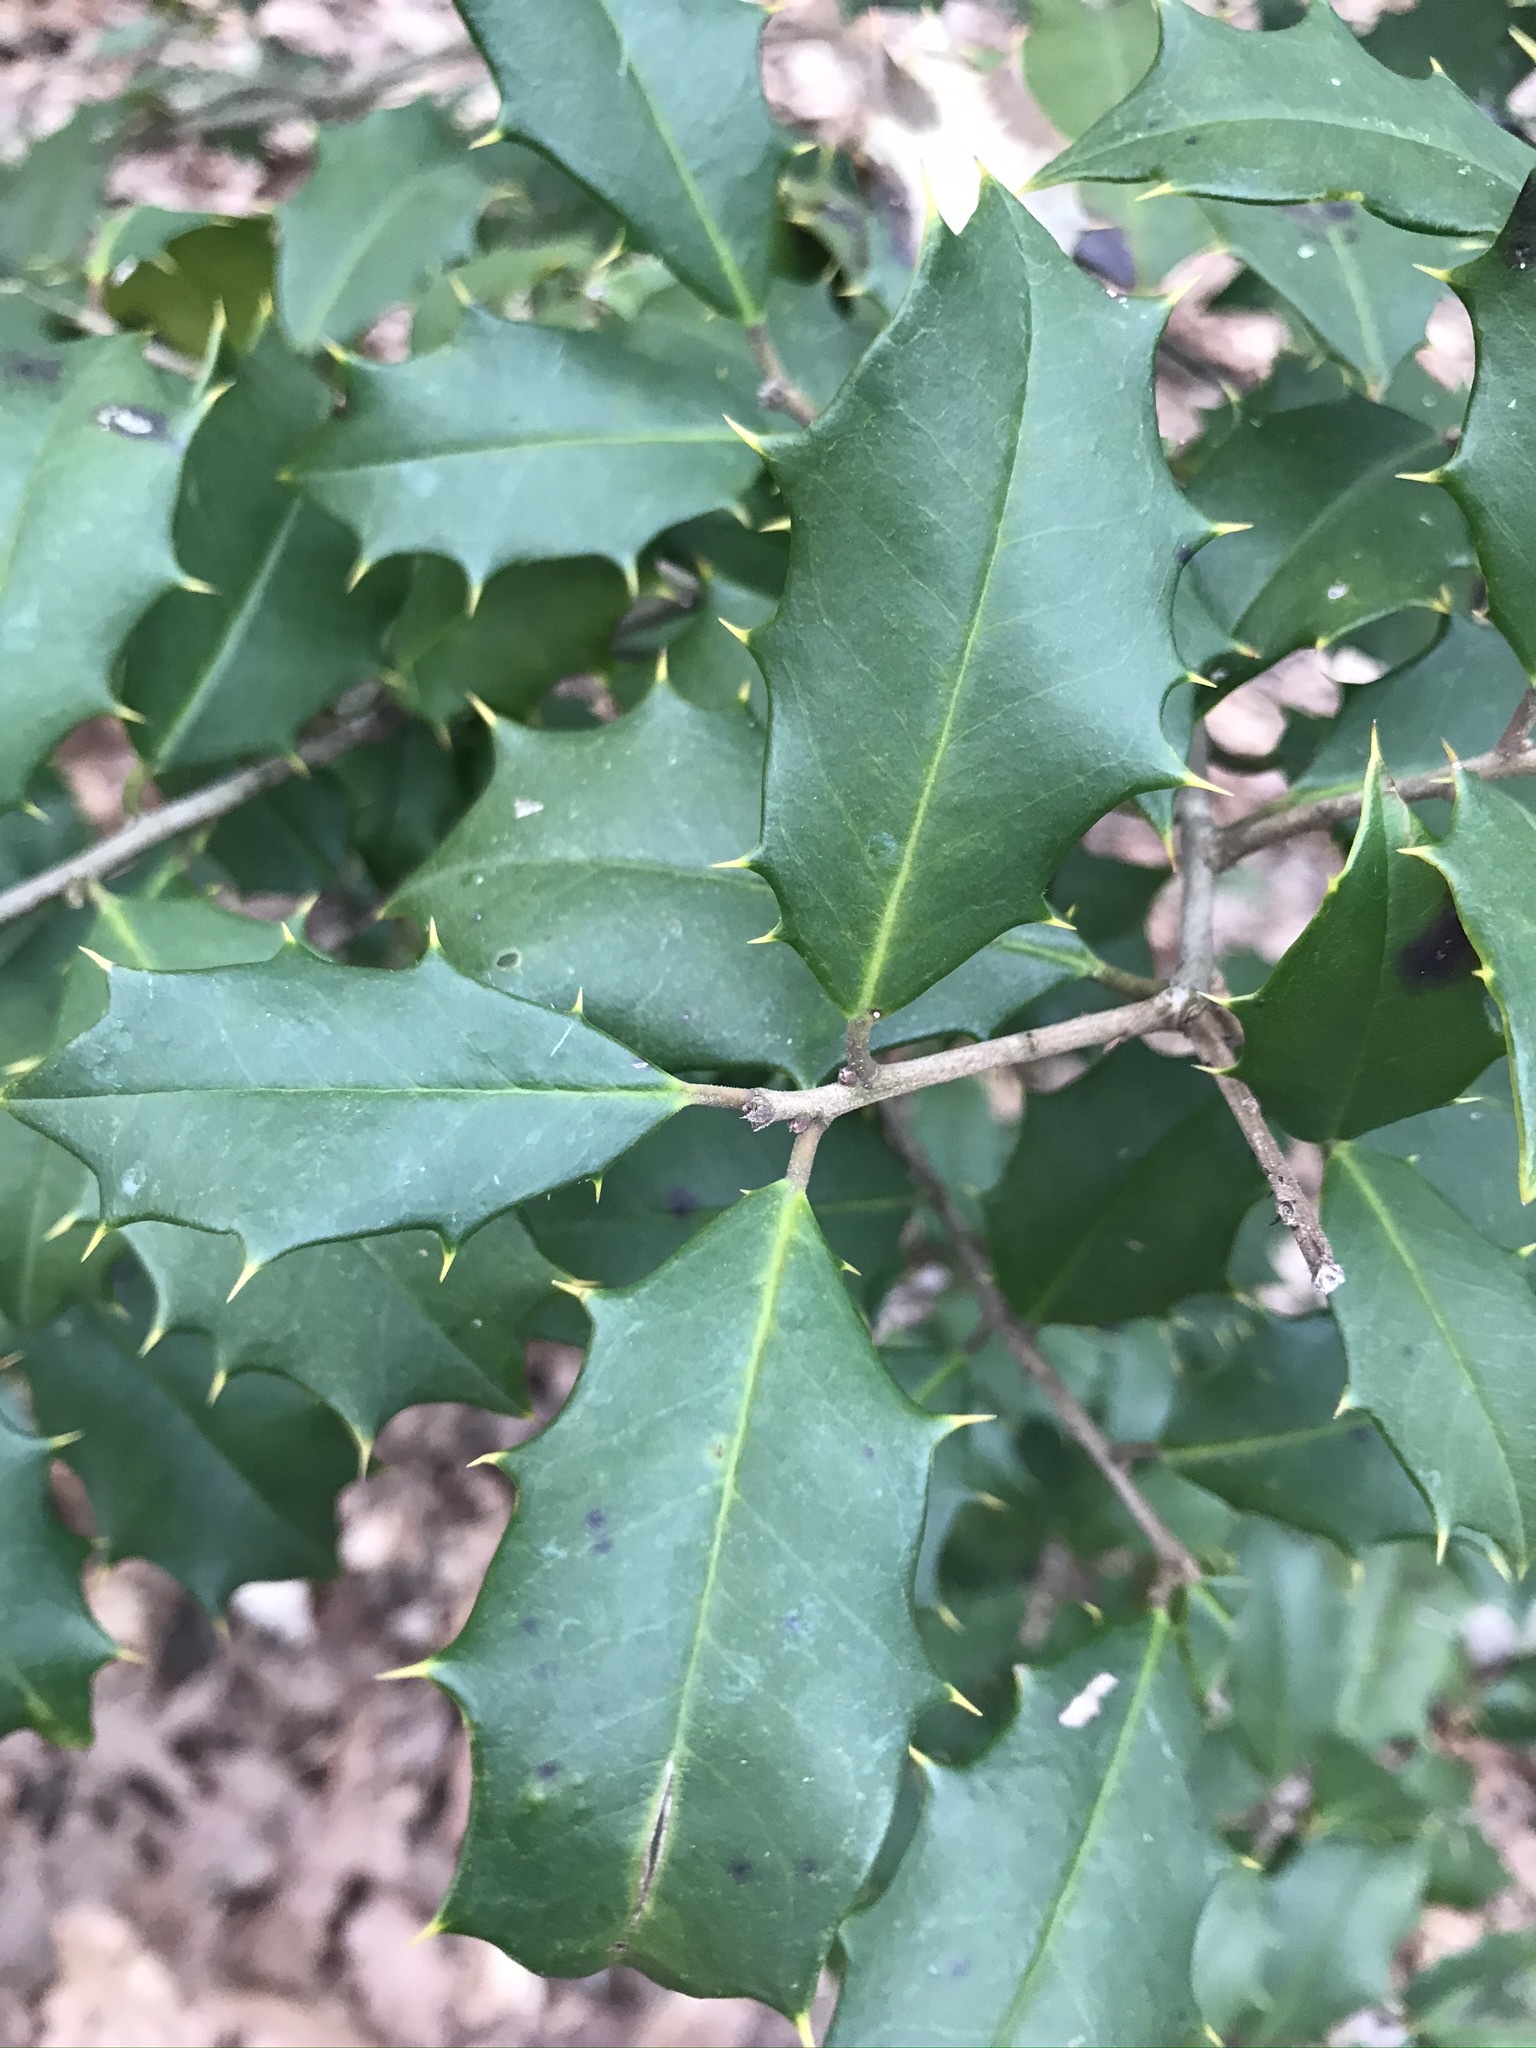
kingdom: Plantae
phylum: Tracheophyta
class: Magnoliopsida
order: Aquifoliales
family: Aquifoliaceae
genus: Ilex
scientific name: Ilex opaca
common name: American holly
